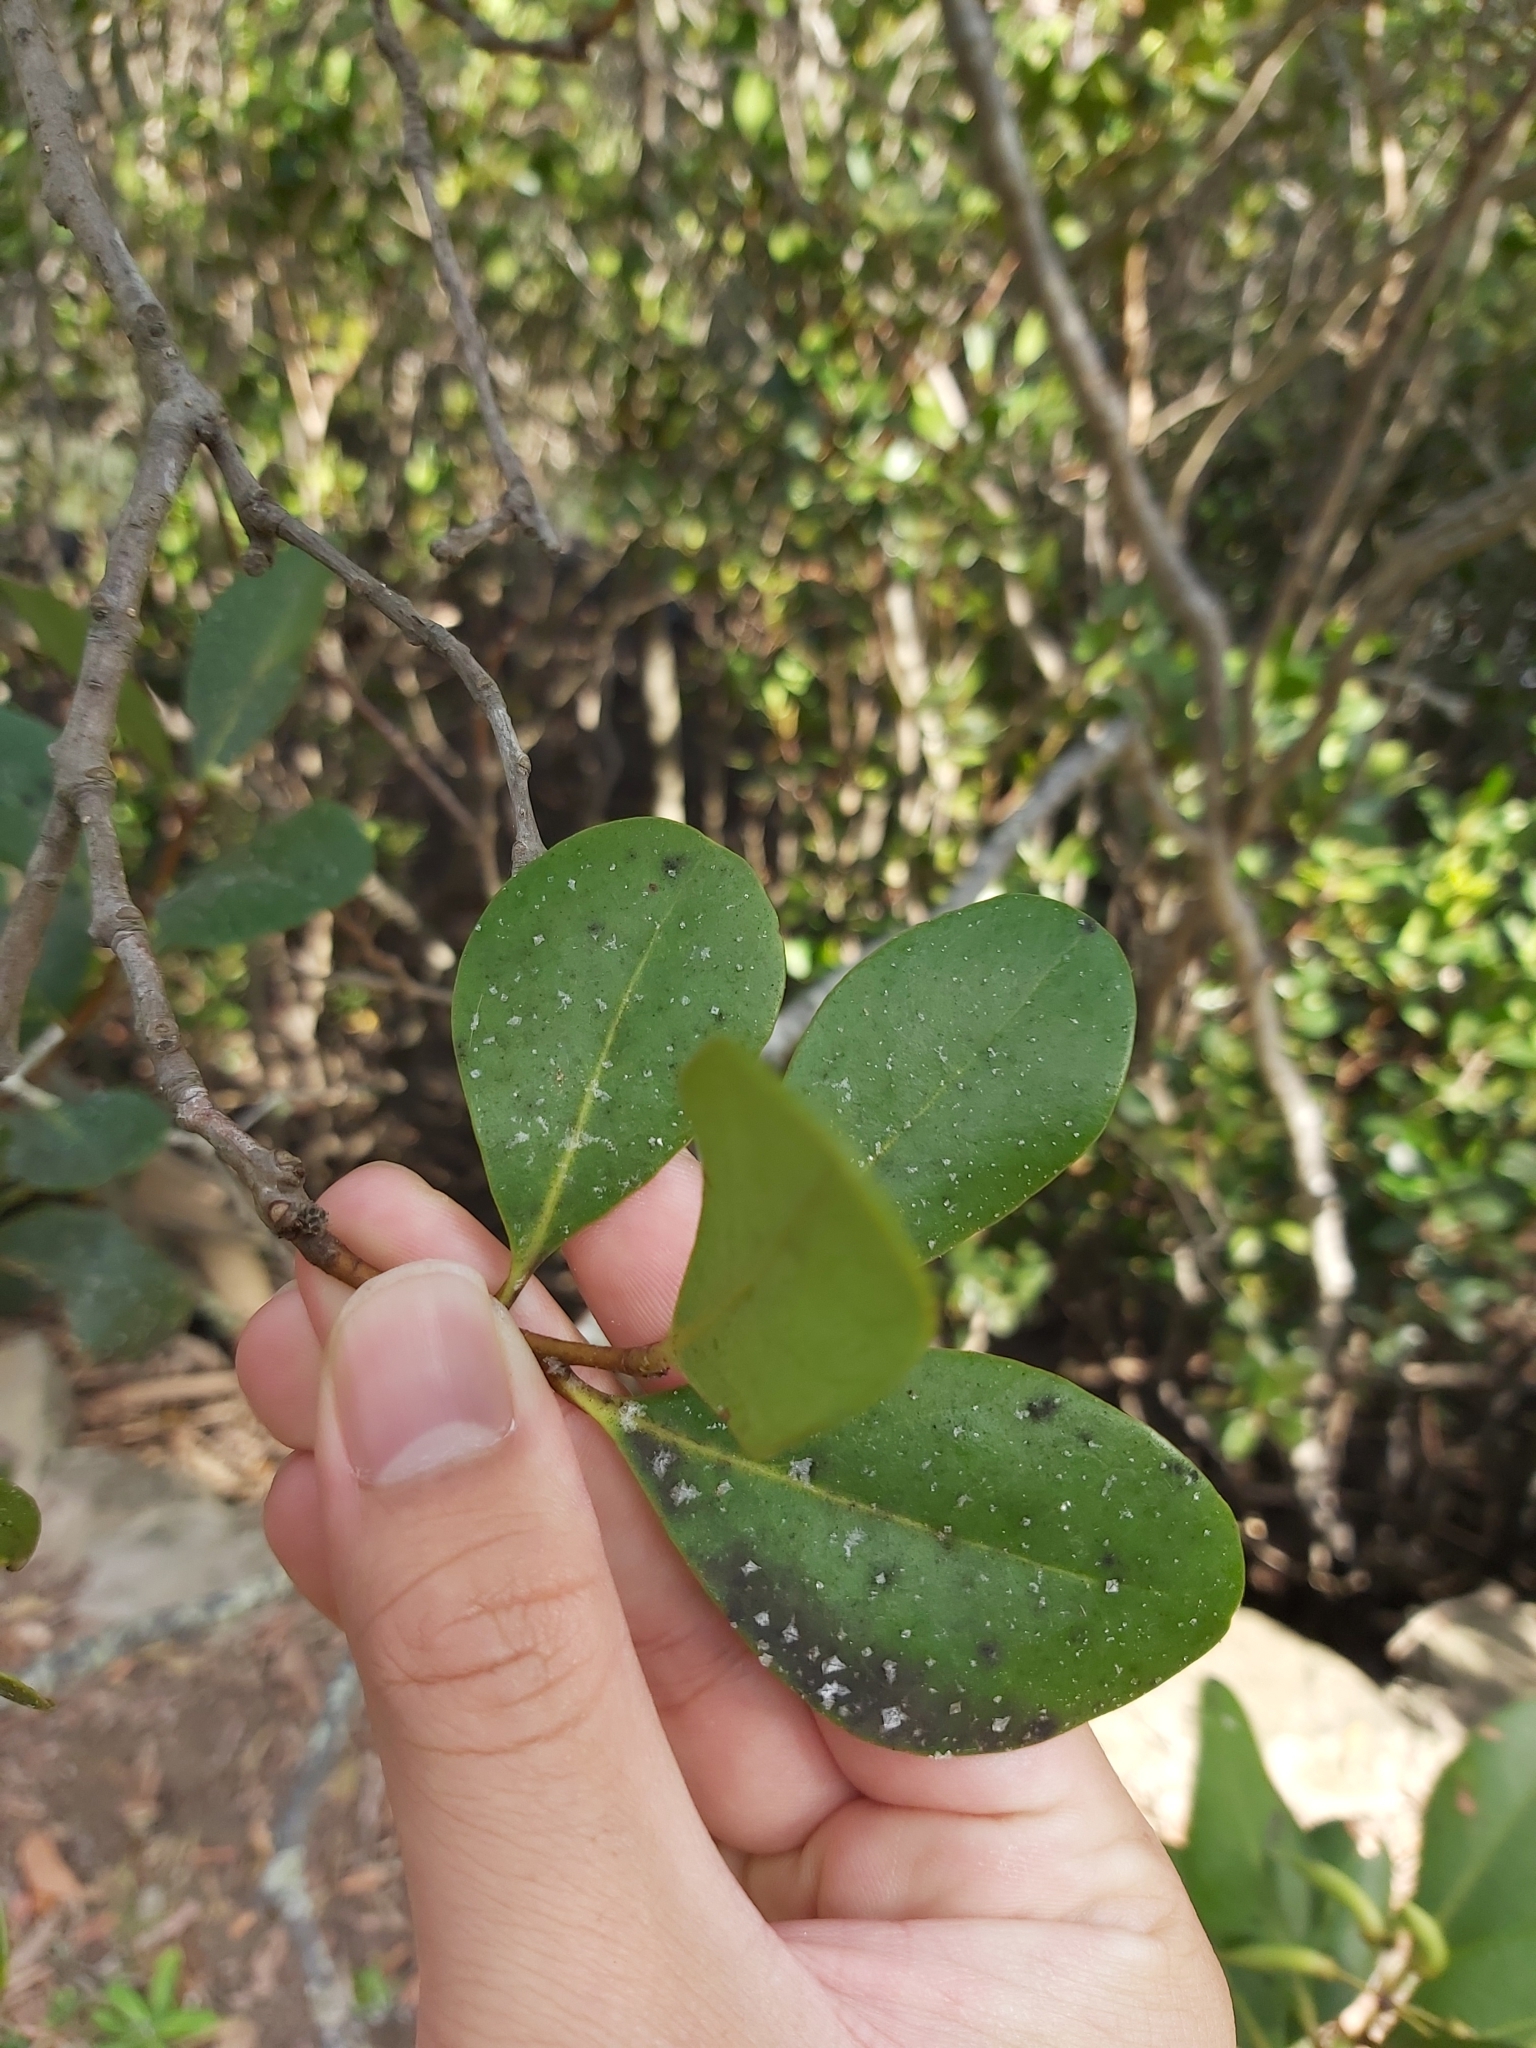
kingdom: Plantae
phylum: Tracheophyta
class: Magnoliopsida
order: Ericales
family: Primulaceae
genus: Aegiceras
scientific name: Aegiceras corniculatum
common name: River mangrove
